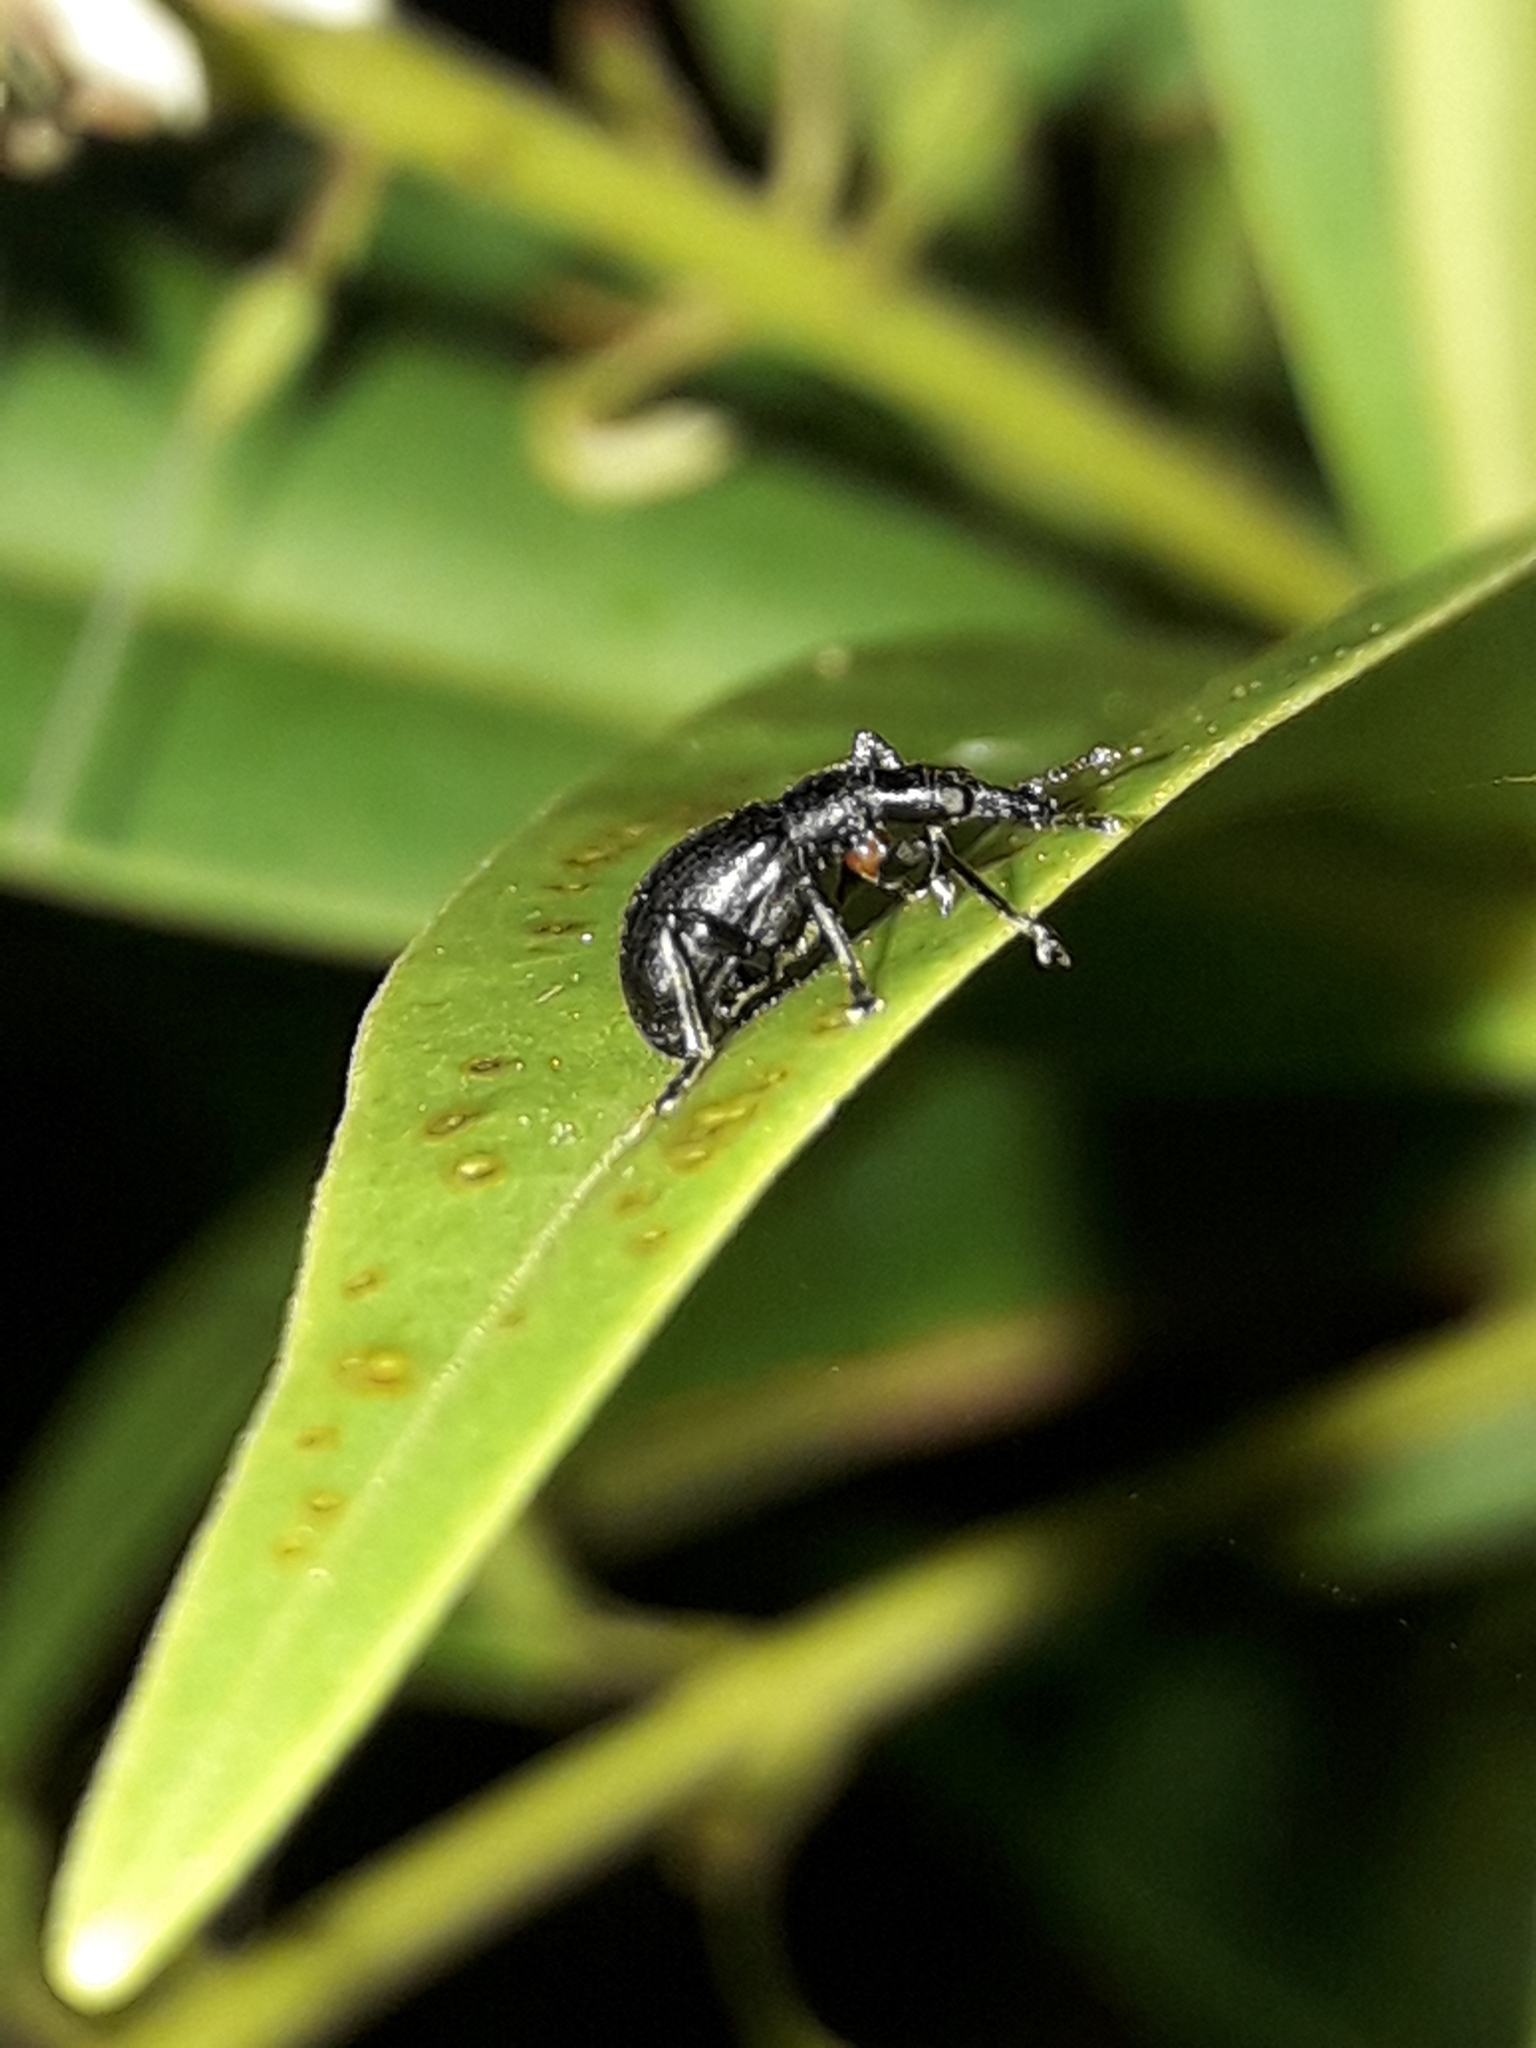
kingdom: Animalia
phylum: Arthropoda
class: Insecta
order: Coleoptera
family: Brentidae
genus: Cecidophyus
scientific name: Cecidophyus nothofagi
